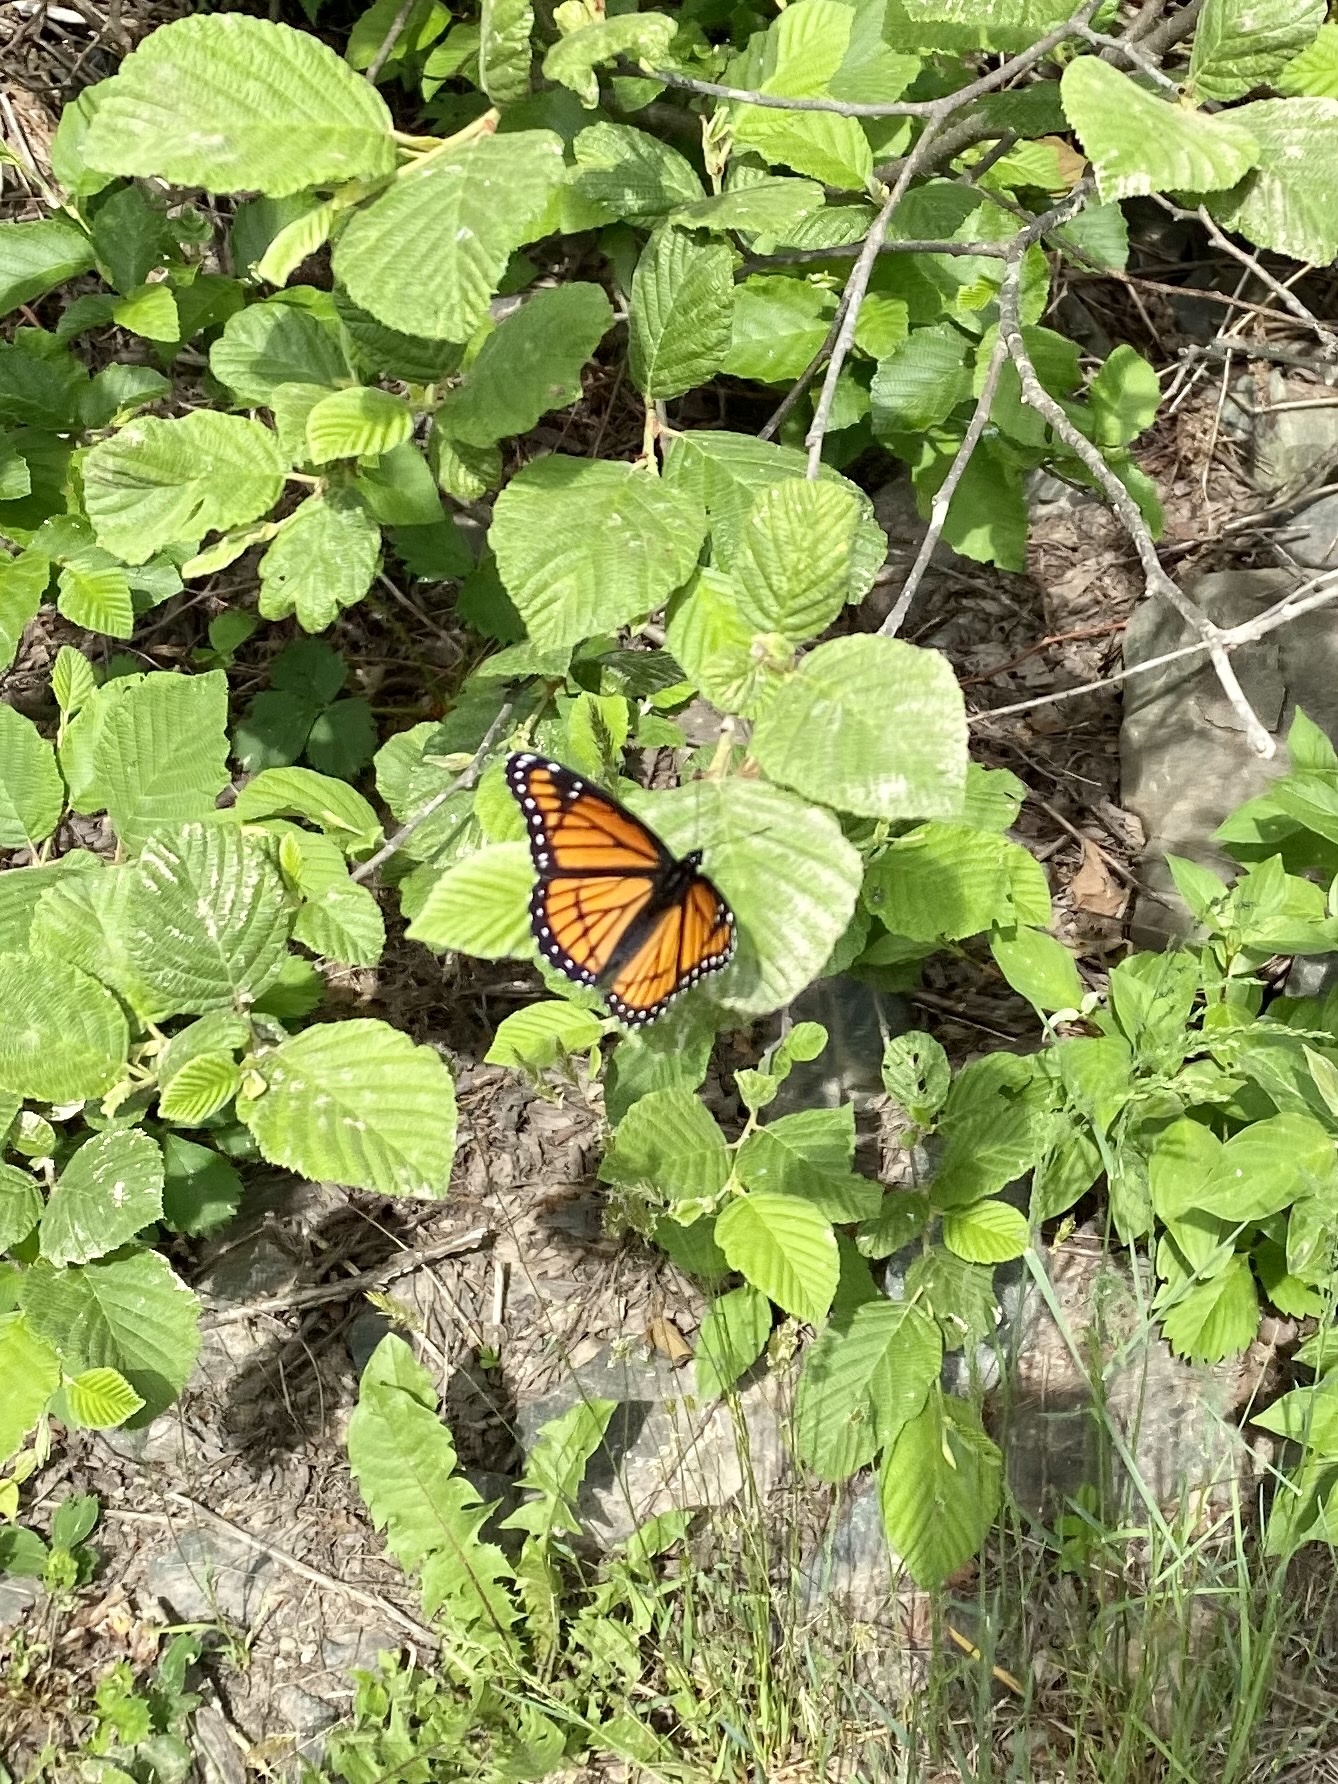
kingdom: Animalia
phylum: Arthropoda
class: Insecta
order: Lepidoptera
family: Nymphalidae
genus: Limenitis
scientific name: Limenitis archippus
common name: Viceroy
